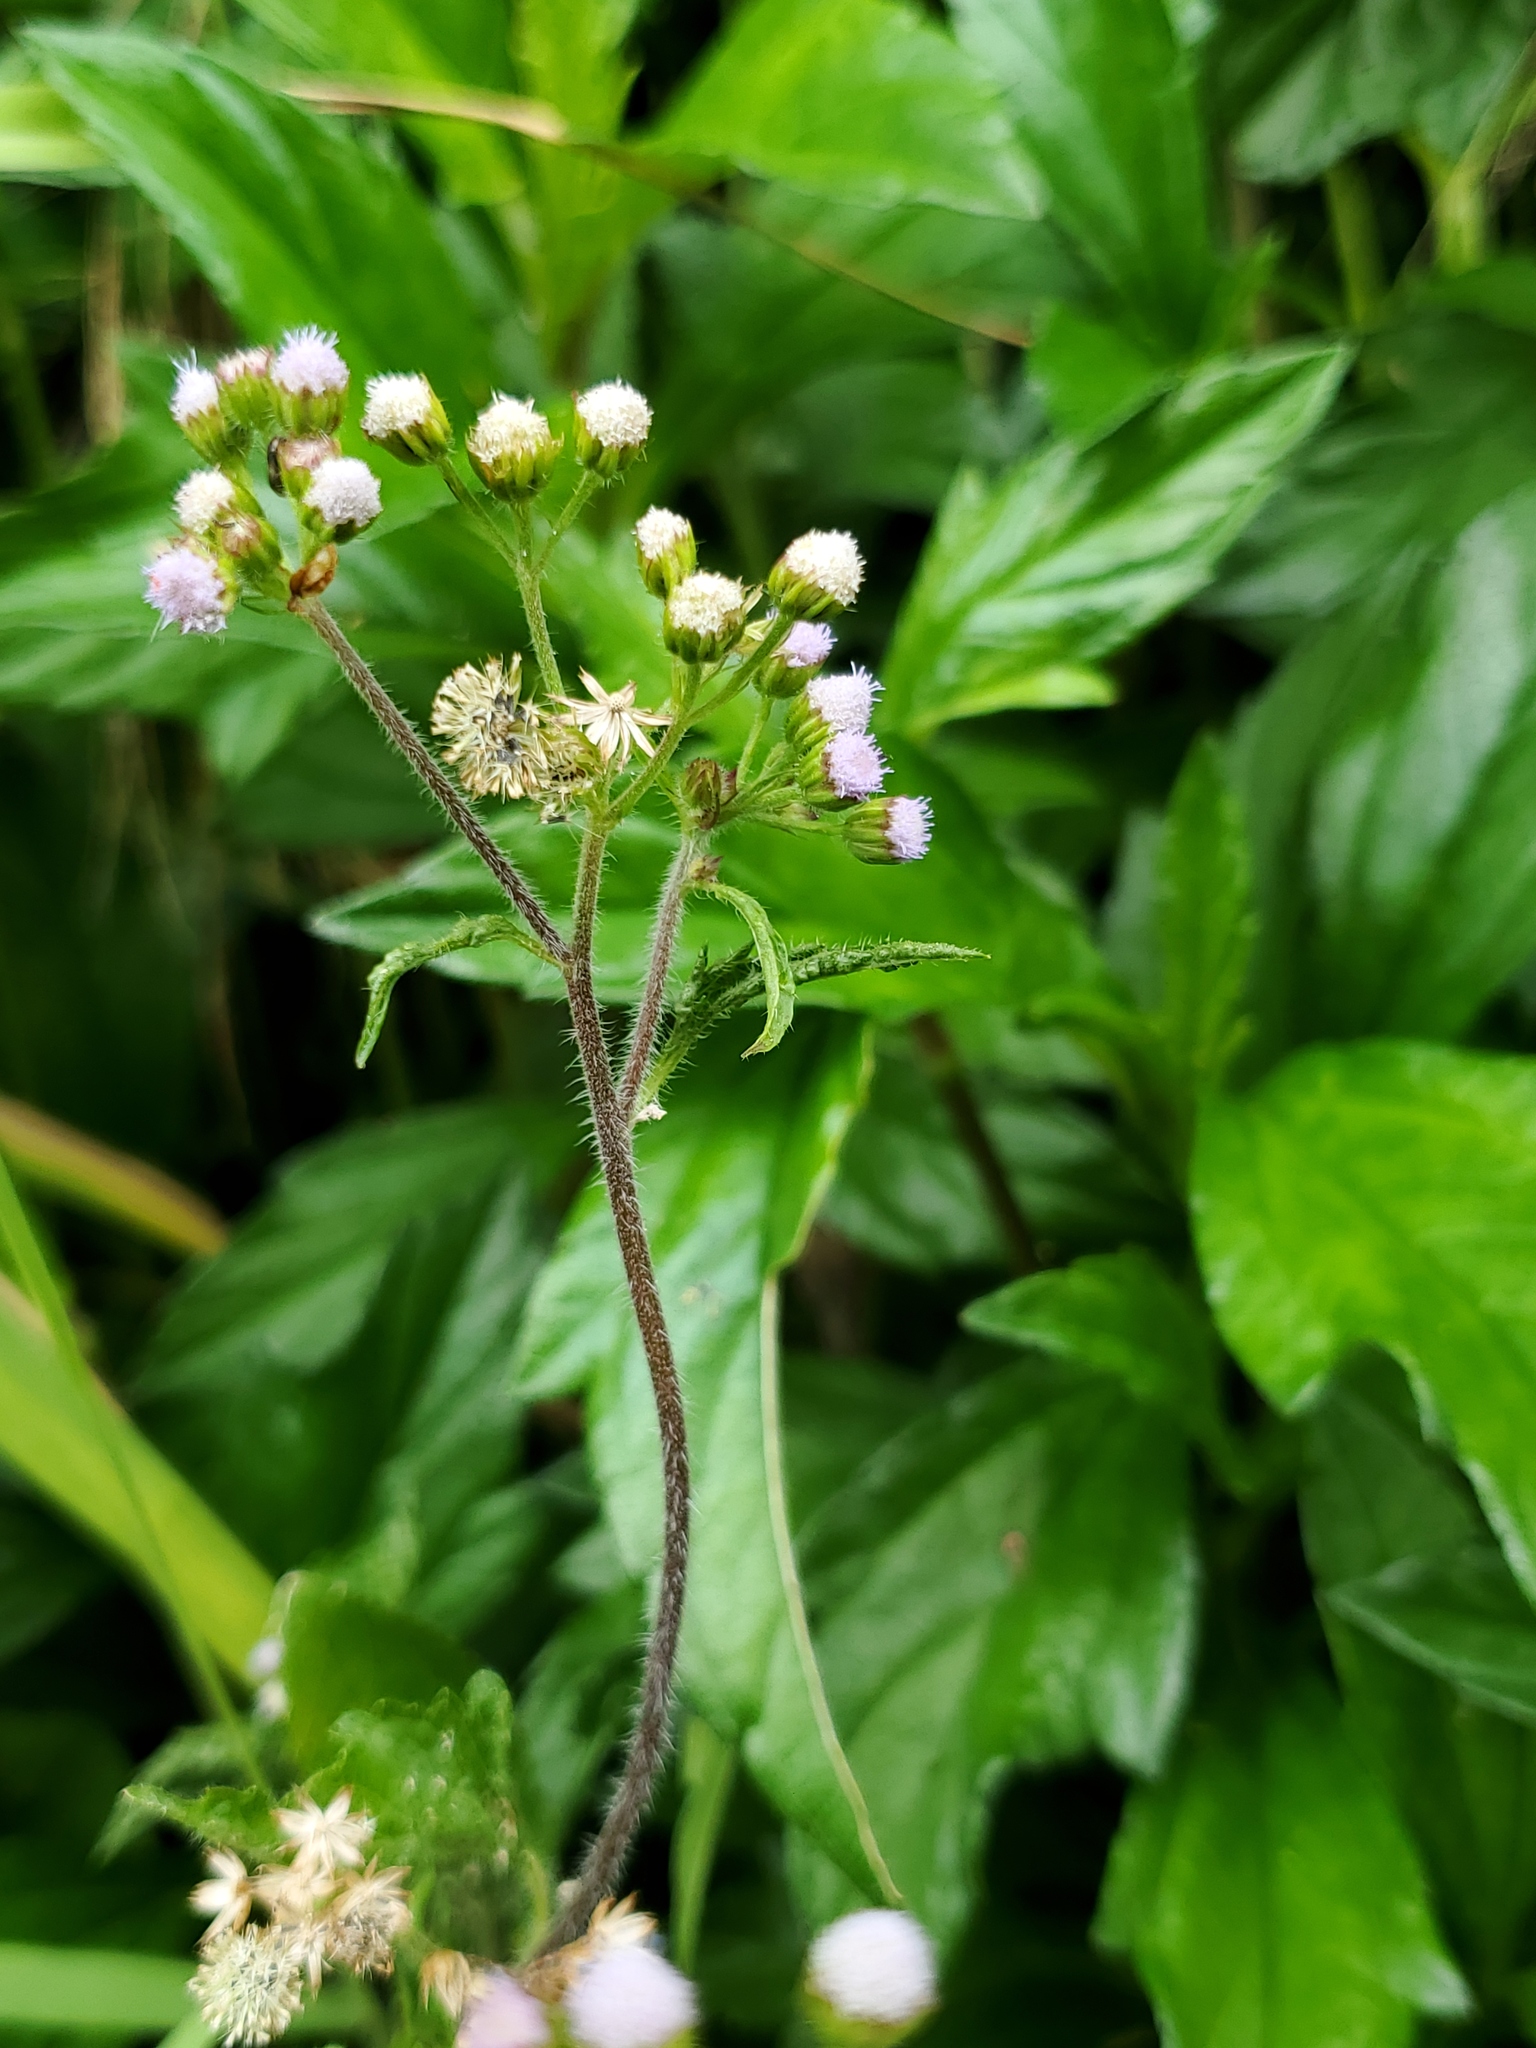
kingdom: Plantae
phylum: Tracheophyta
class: Magnoliopsida
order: Asterales
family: Asteraceae
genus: Ageratum
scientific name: Ageratum conyzoides
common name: Tropical whiteweed
